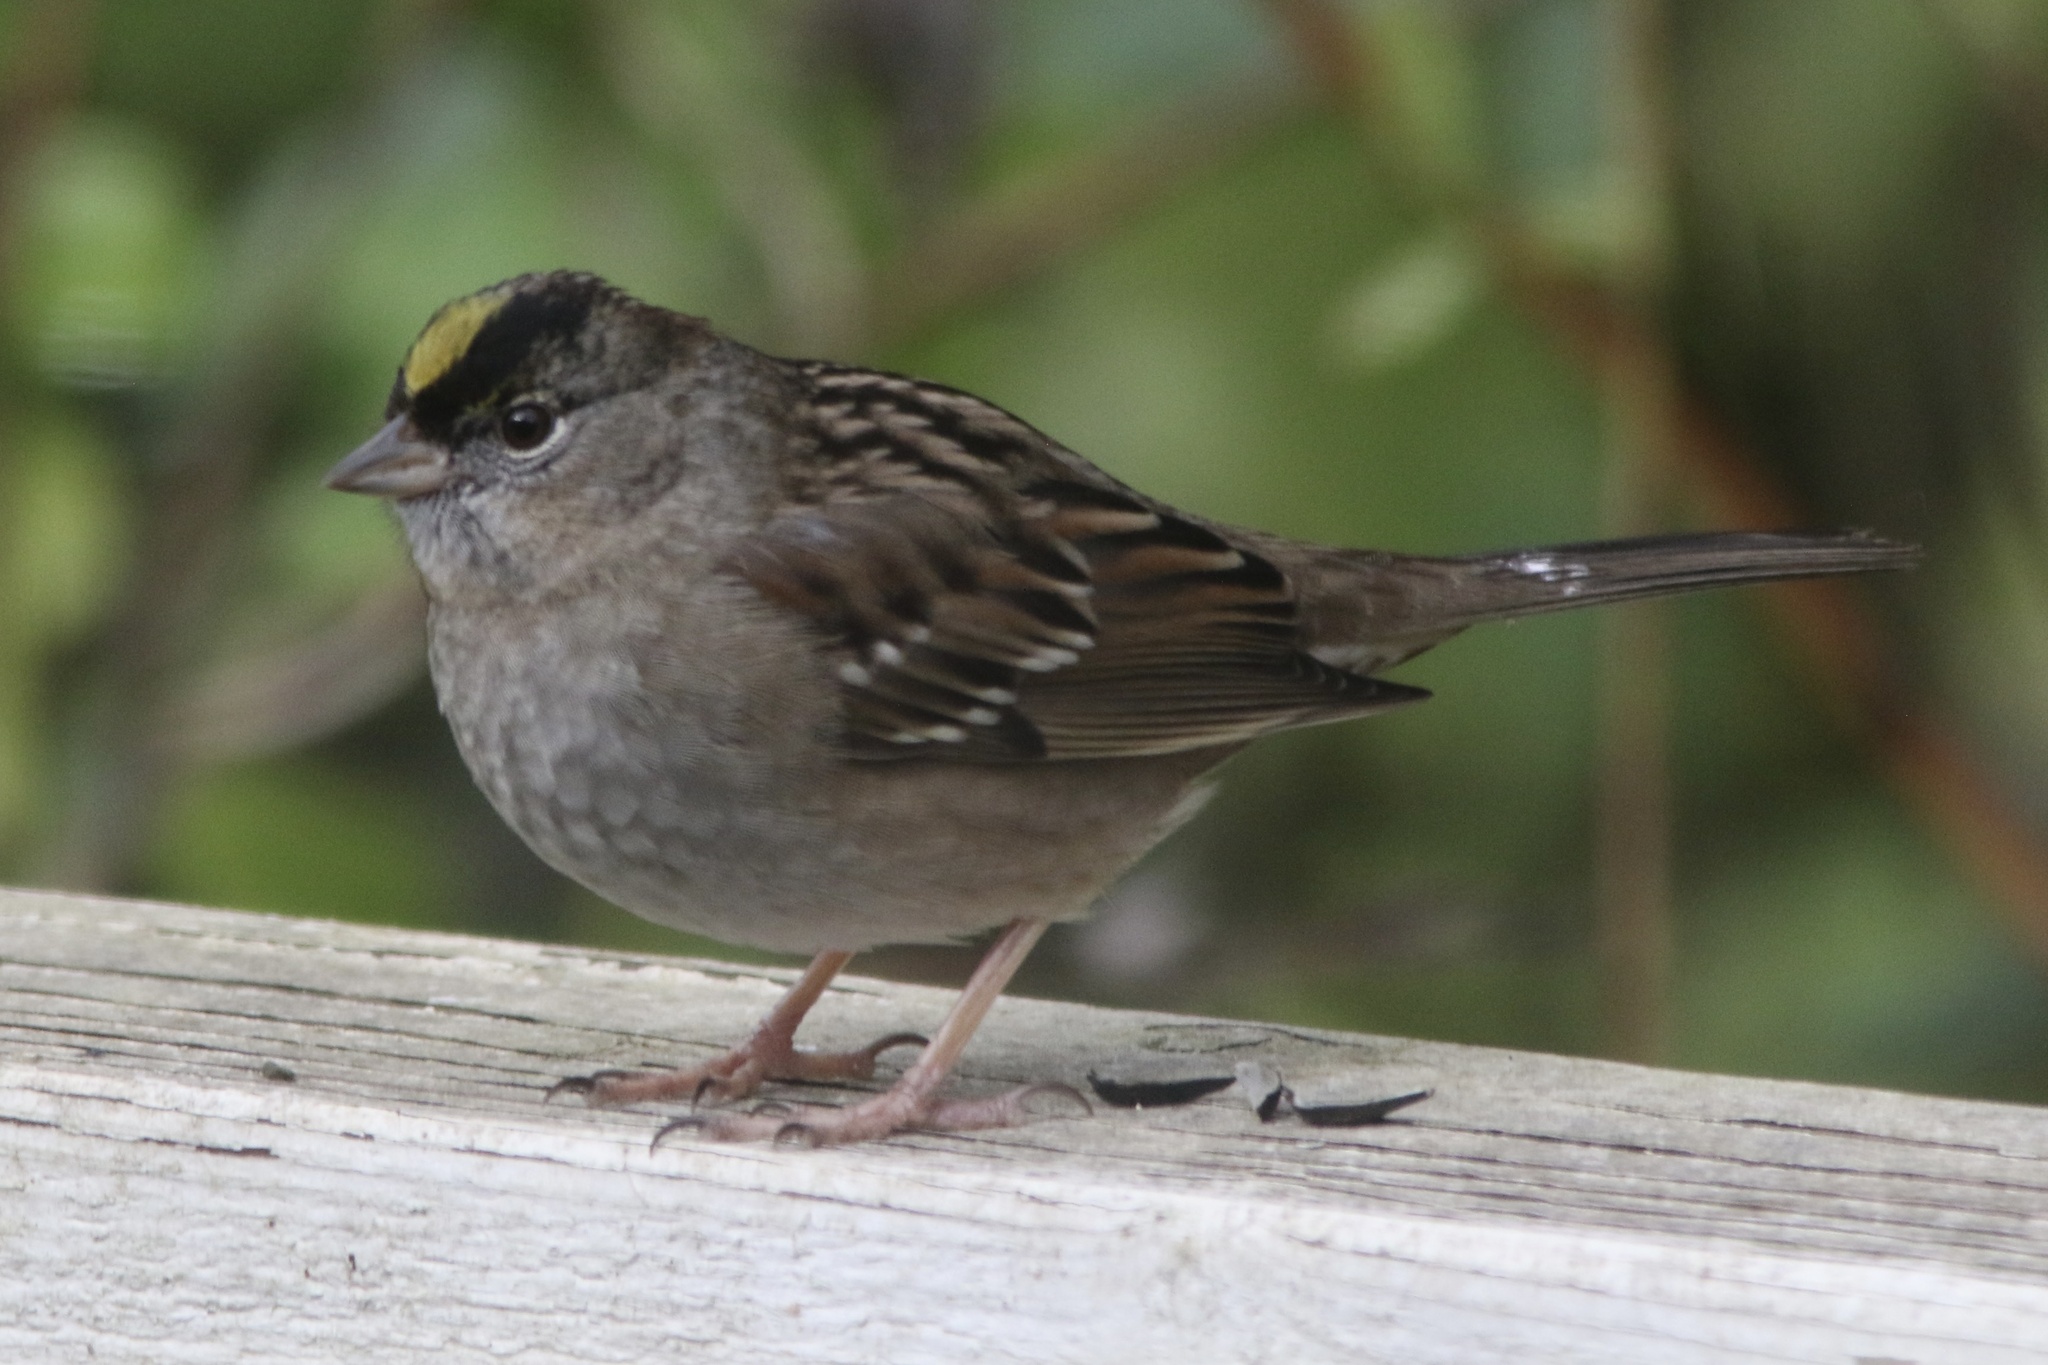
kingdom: Animalia
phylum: Chordata
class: Aves
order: Passeriformes
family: Passerellidae
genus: Zonotrichia
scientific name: Zonotrichia atricapilla
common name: Golden-crowned sparrow
